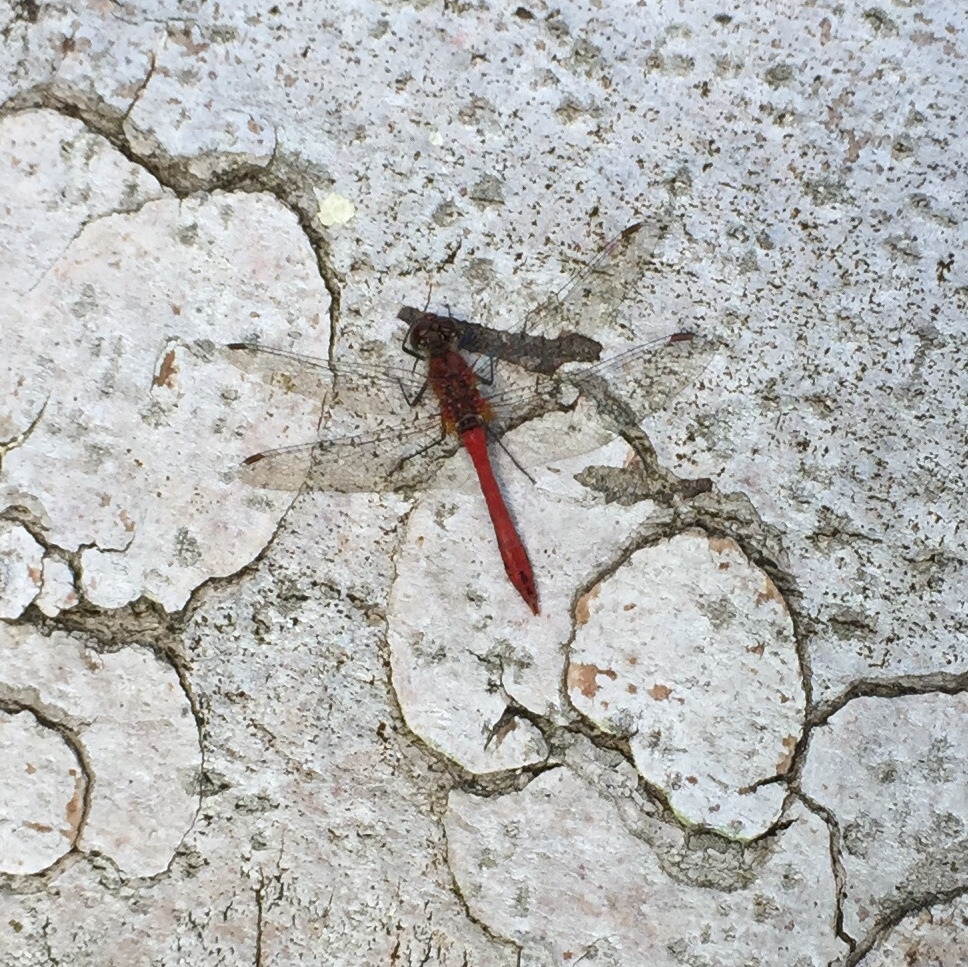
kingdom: Animalia
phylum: Arthropoda
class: Insecta
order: Odonata
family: Libellulidae
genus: Sympetrum
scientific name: Sympetrum sanguineum
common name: Ruddy darter
